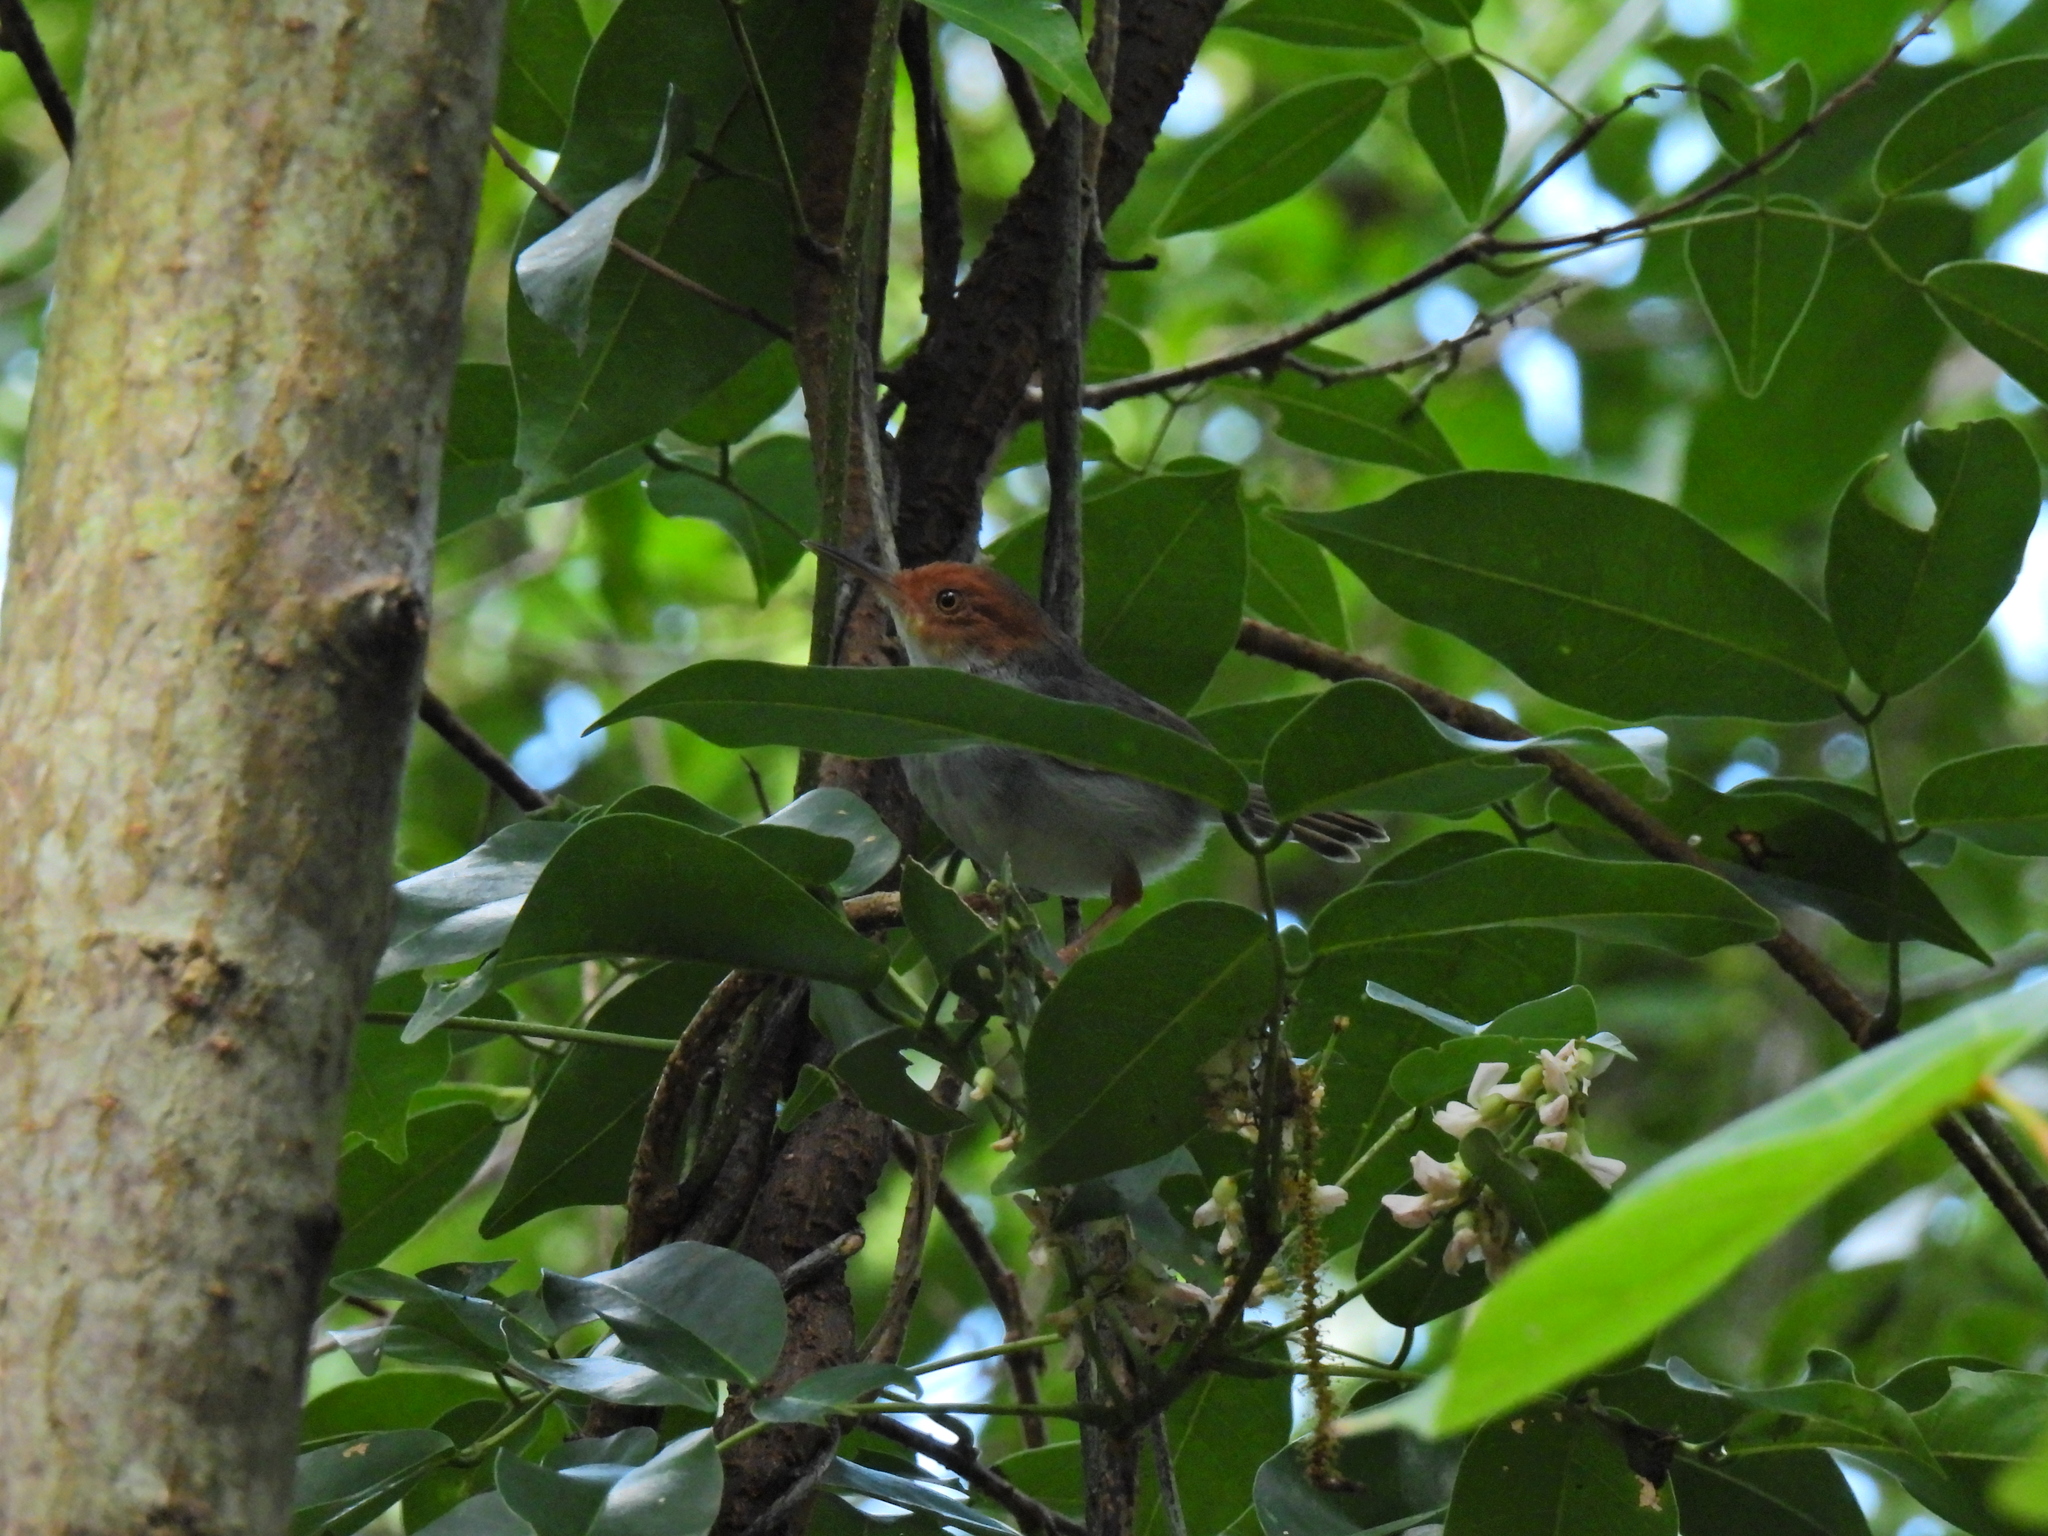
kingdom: Animalia
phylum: Chordata
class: Aves
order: Passeriformes
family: Cisticolidae
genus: Orthotomus
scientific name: Orthotomus ruficeps
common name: Ashy tailorbird
